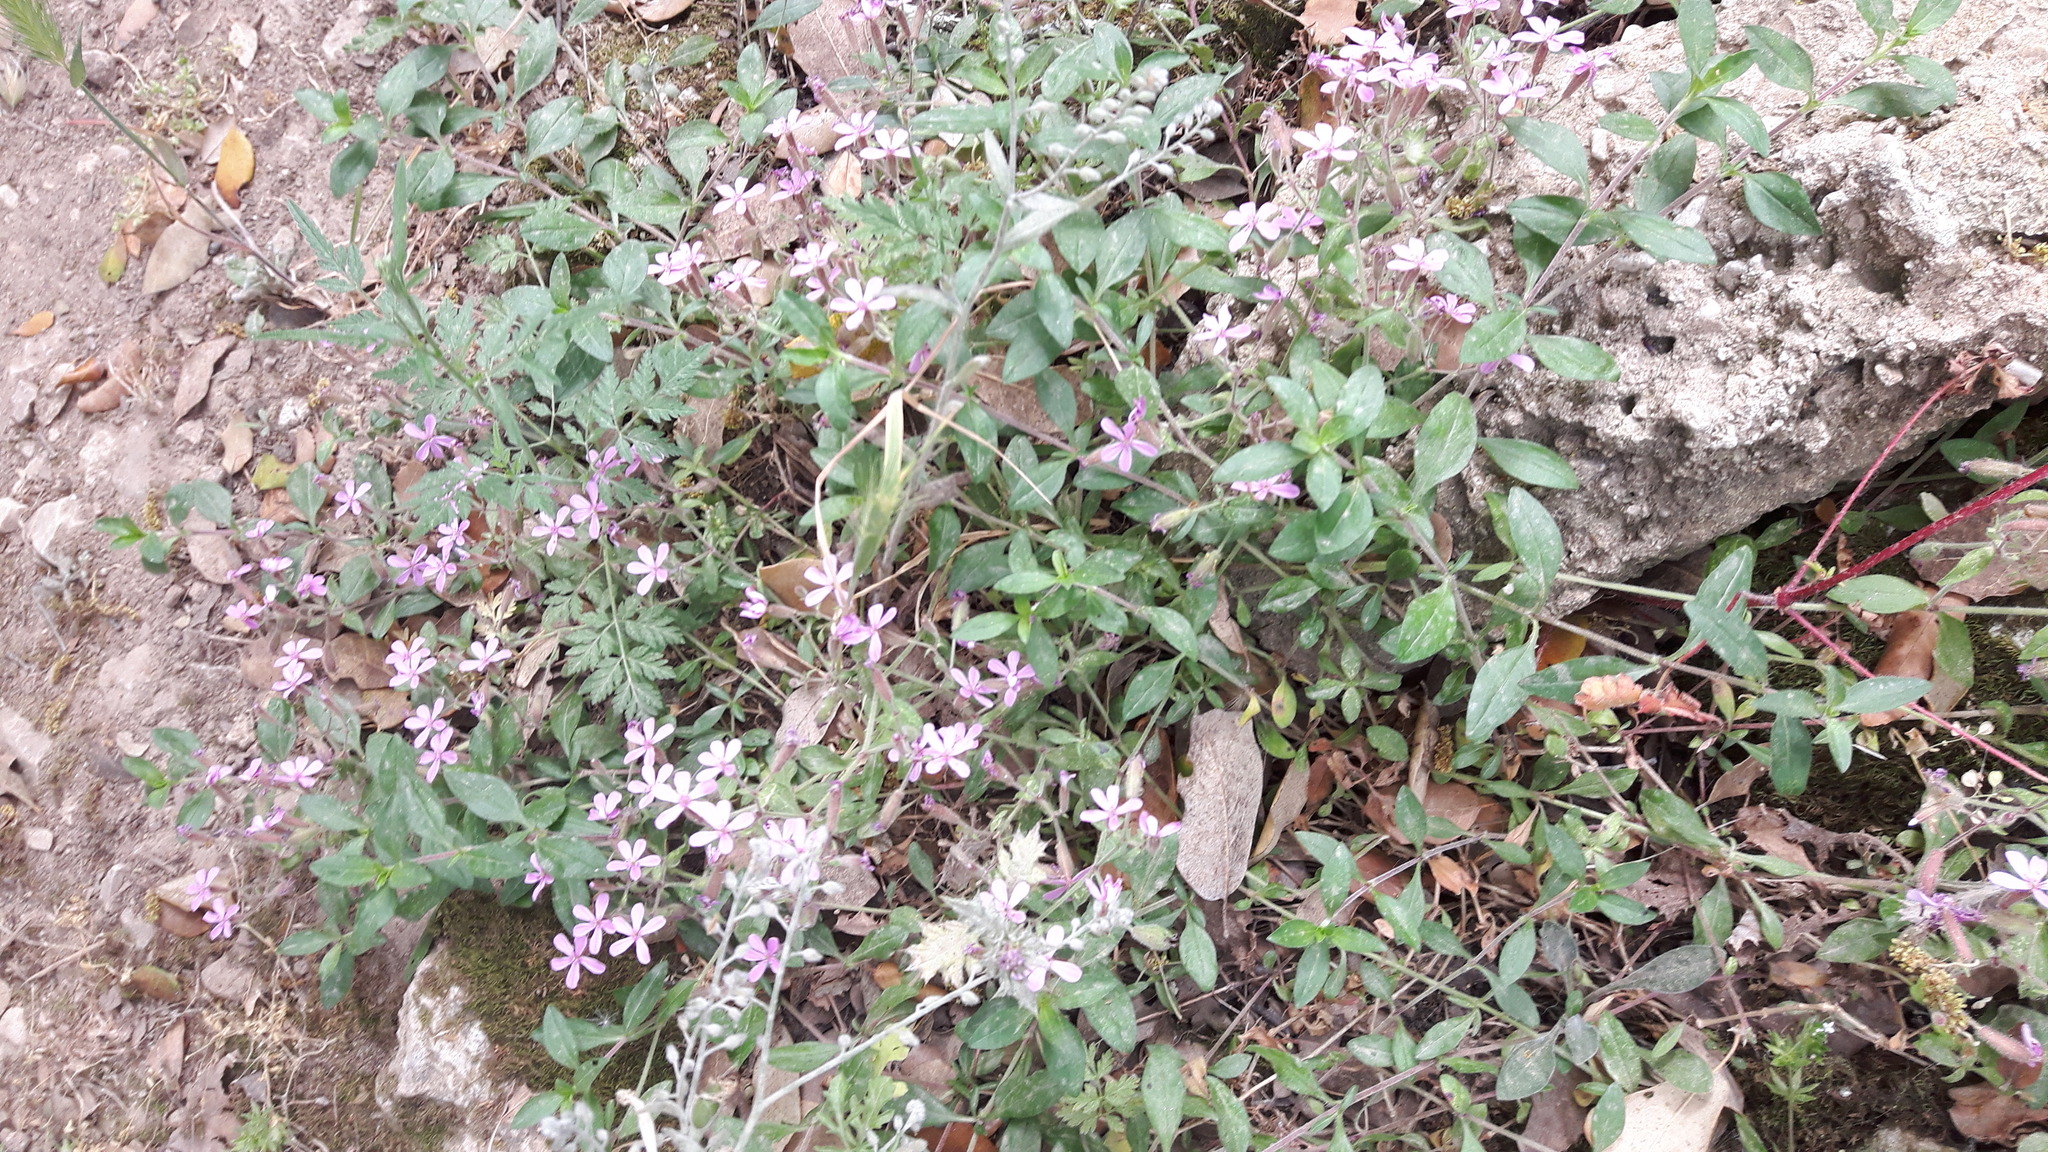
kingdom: Plantae
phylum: Tracheophyta
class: Magnoliopsida
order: Caryophyllales
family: Caryophyllaceae
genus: Saponaria
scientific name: Saponaria ocymoides
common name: Rock soapwort
